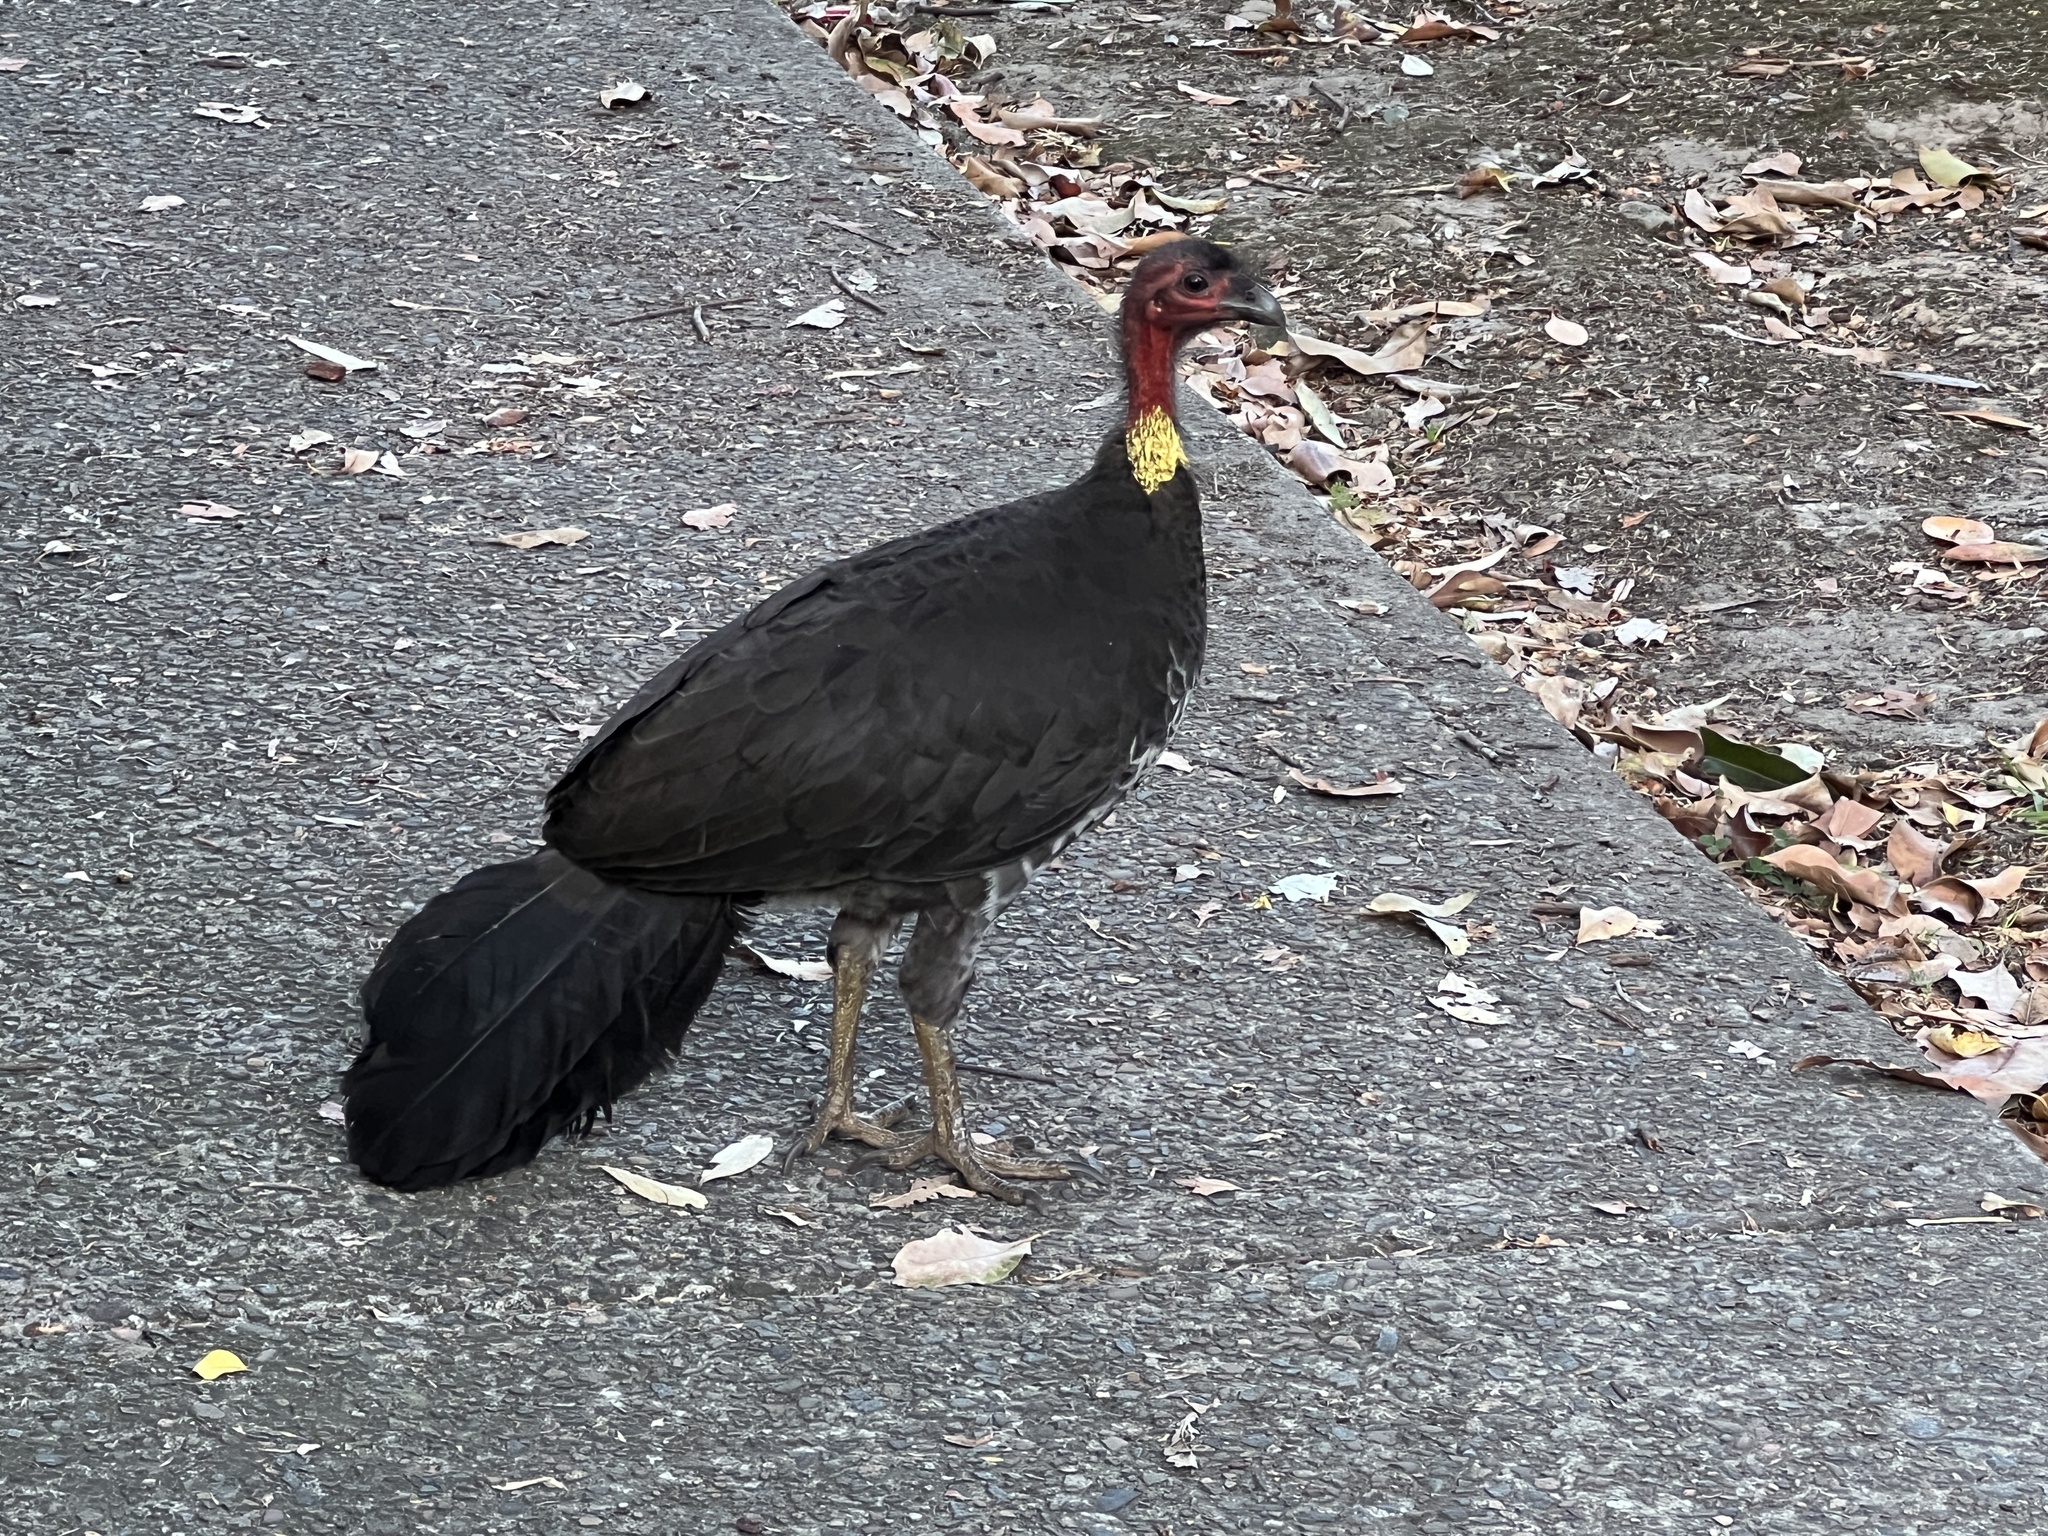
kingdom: Animalia
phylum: Chordata
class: Aves
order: Galliformes
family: Megapodiidae
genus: Alectura
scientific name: Alectura lathami
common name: Australian brushturkey
